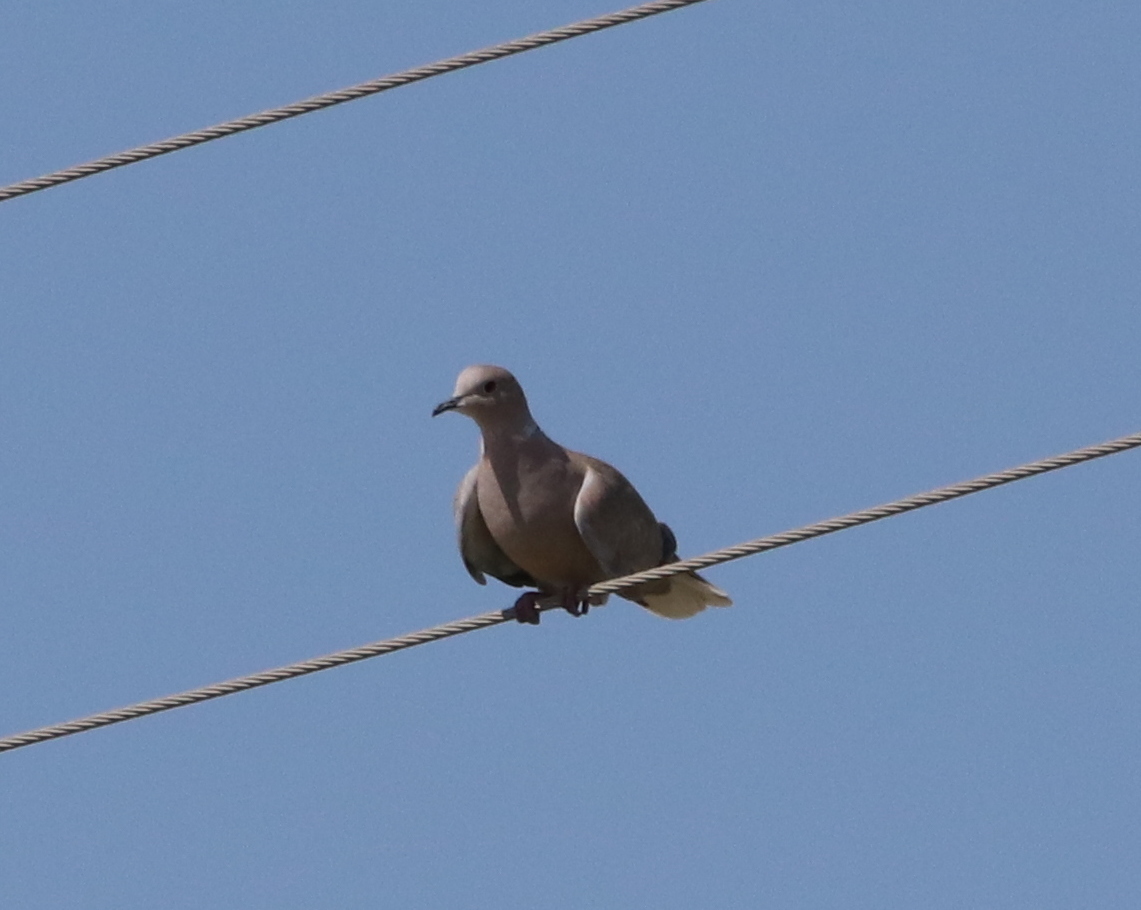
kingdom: Animalia
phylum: Chordata
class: Aves
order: Columbiformes
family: Columbidae
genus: Streptopelia
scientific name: Streptopelia decaocto
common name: Eurasian collared dove
